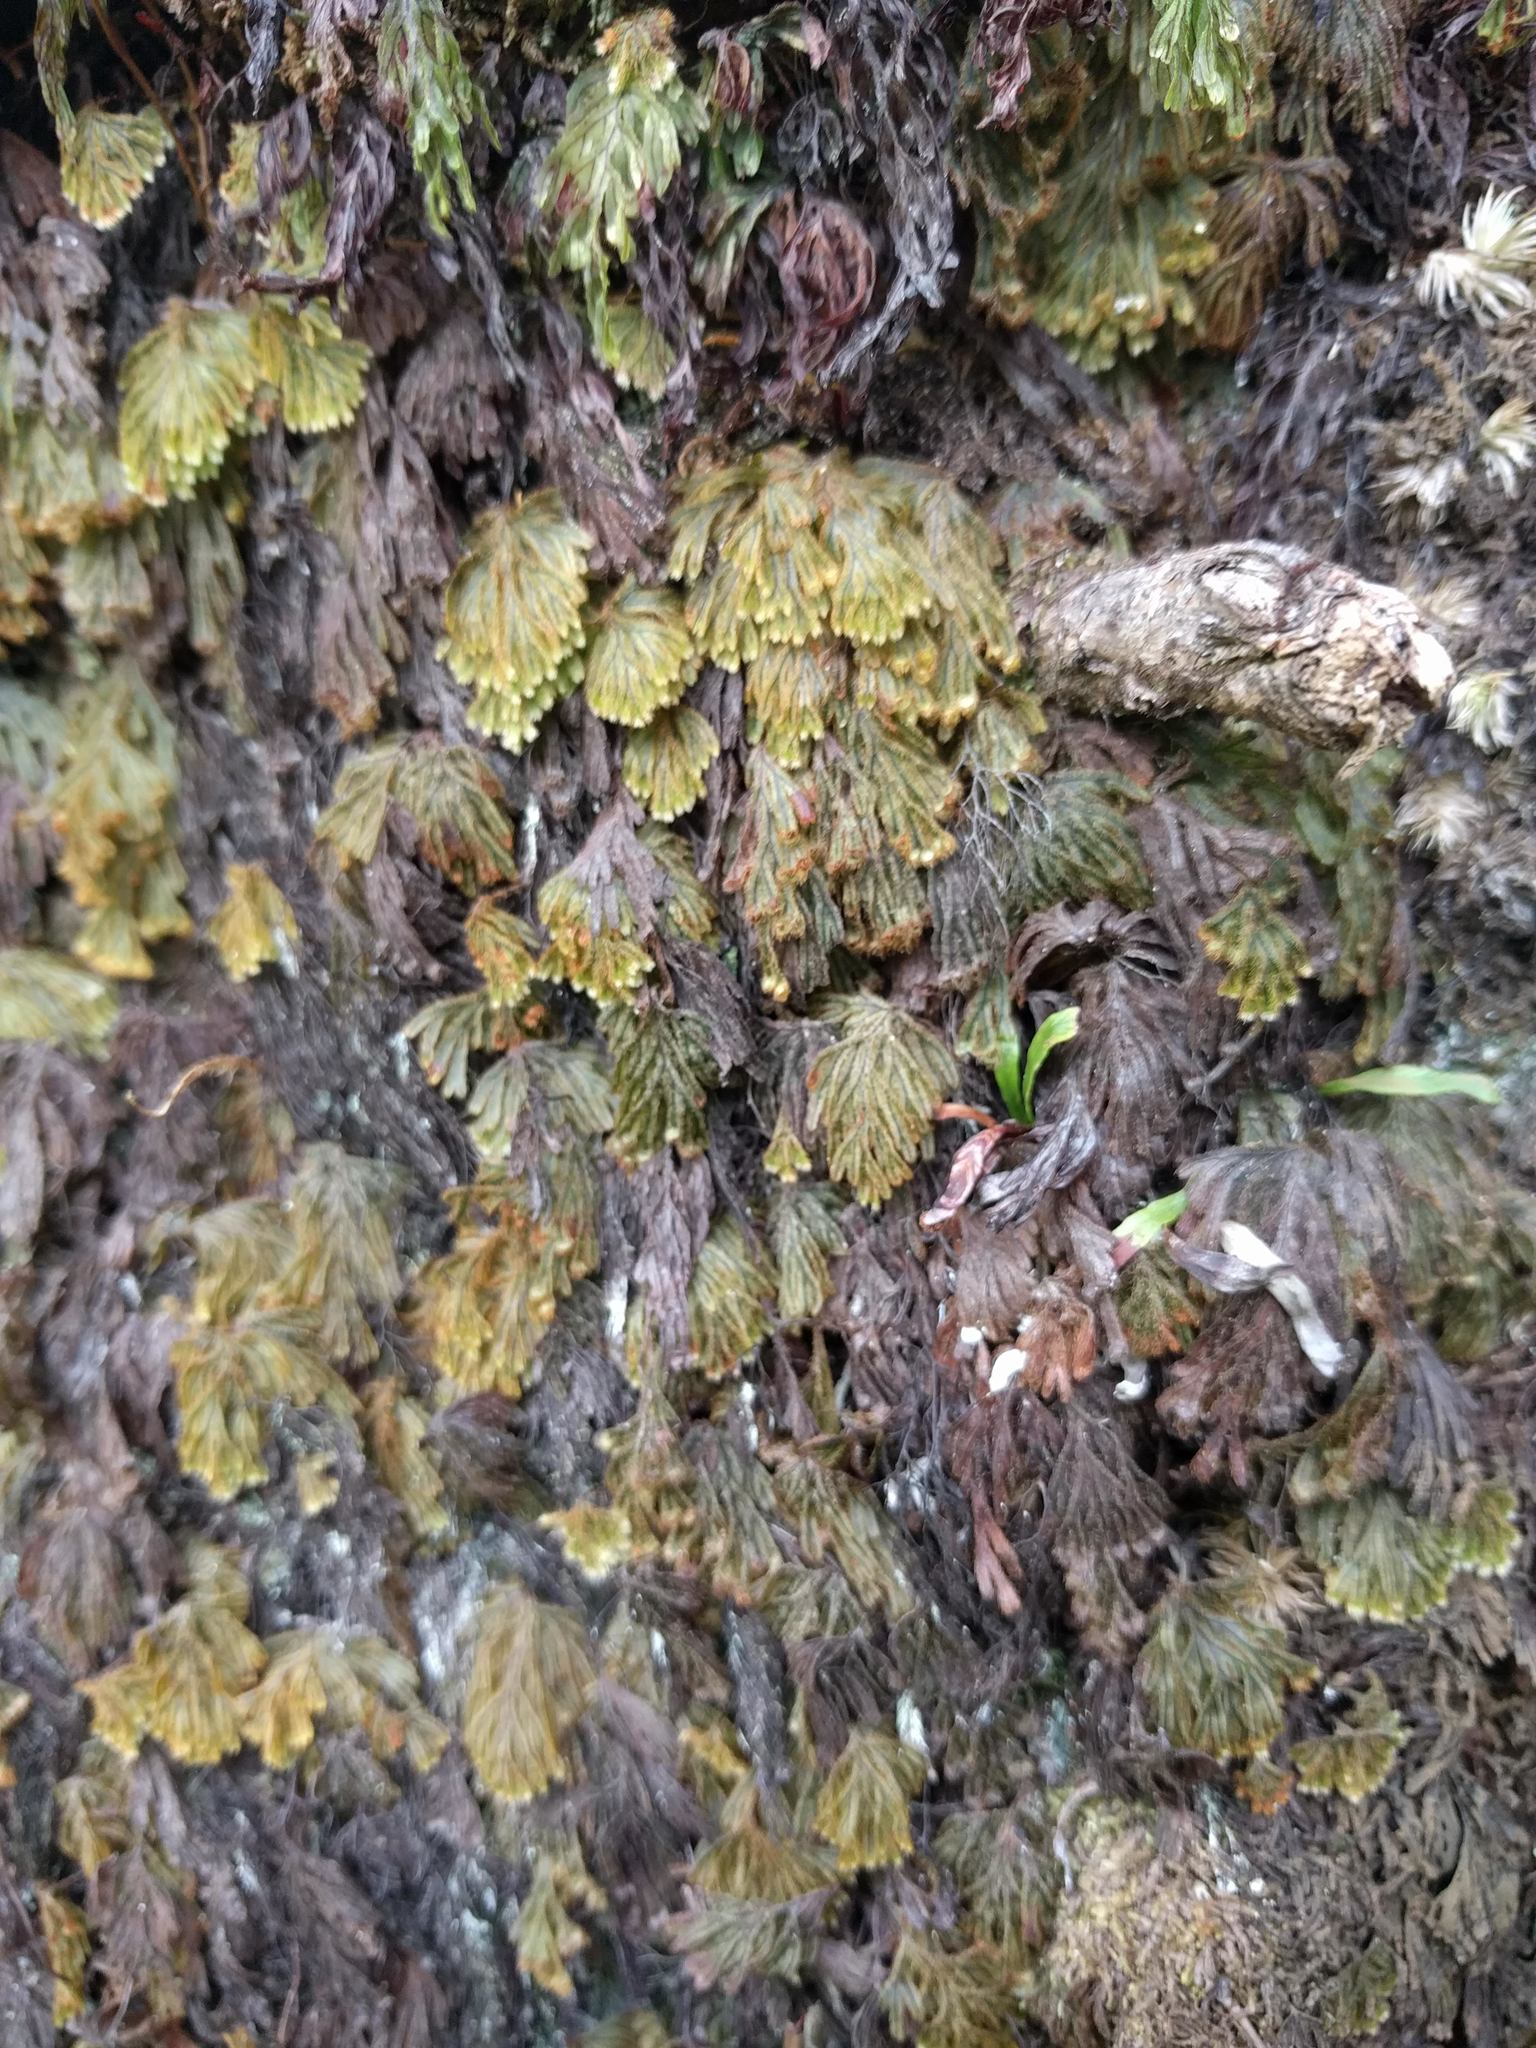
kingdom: Plantae
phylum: Tracheophyta
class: Polypodiopsida
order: Hymenophyllales
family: Hymenophyllaceae
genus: Hymenophyllum
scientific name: Hymenophyllum obtusum
